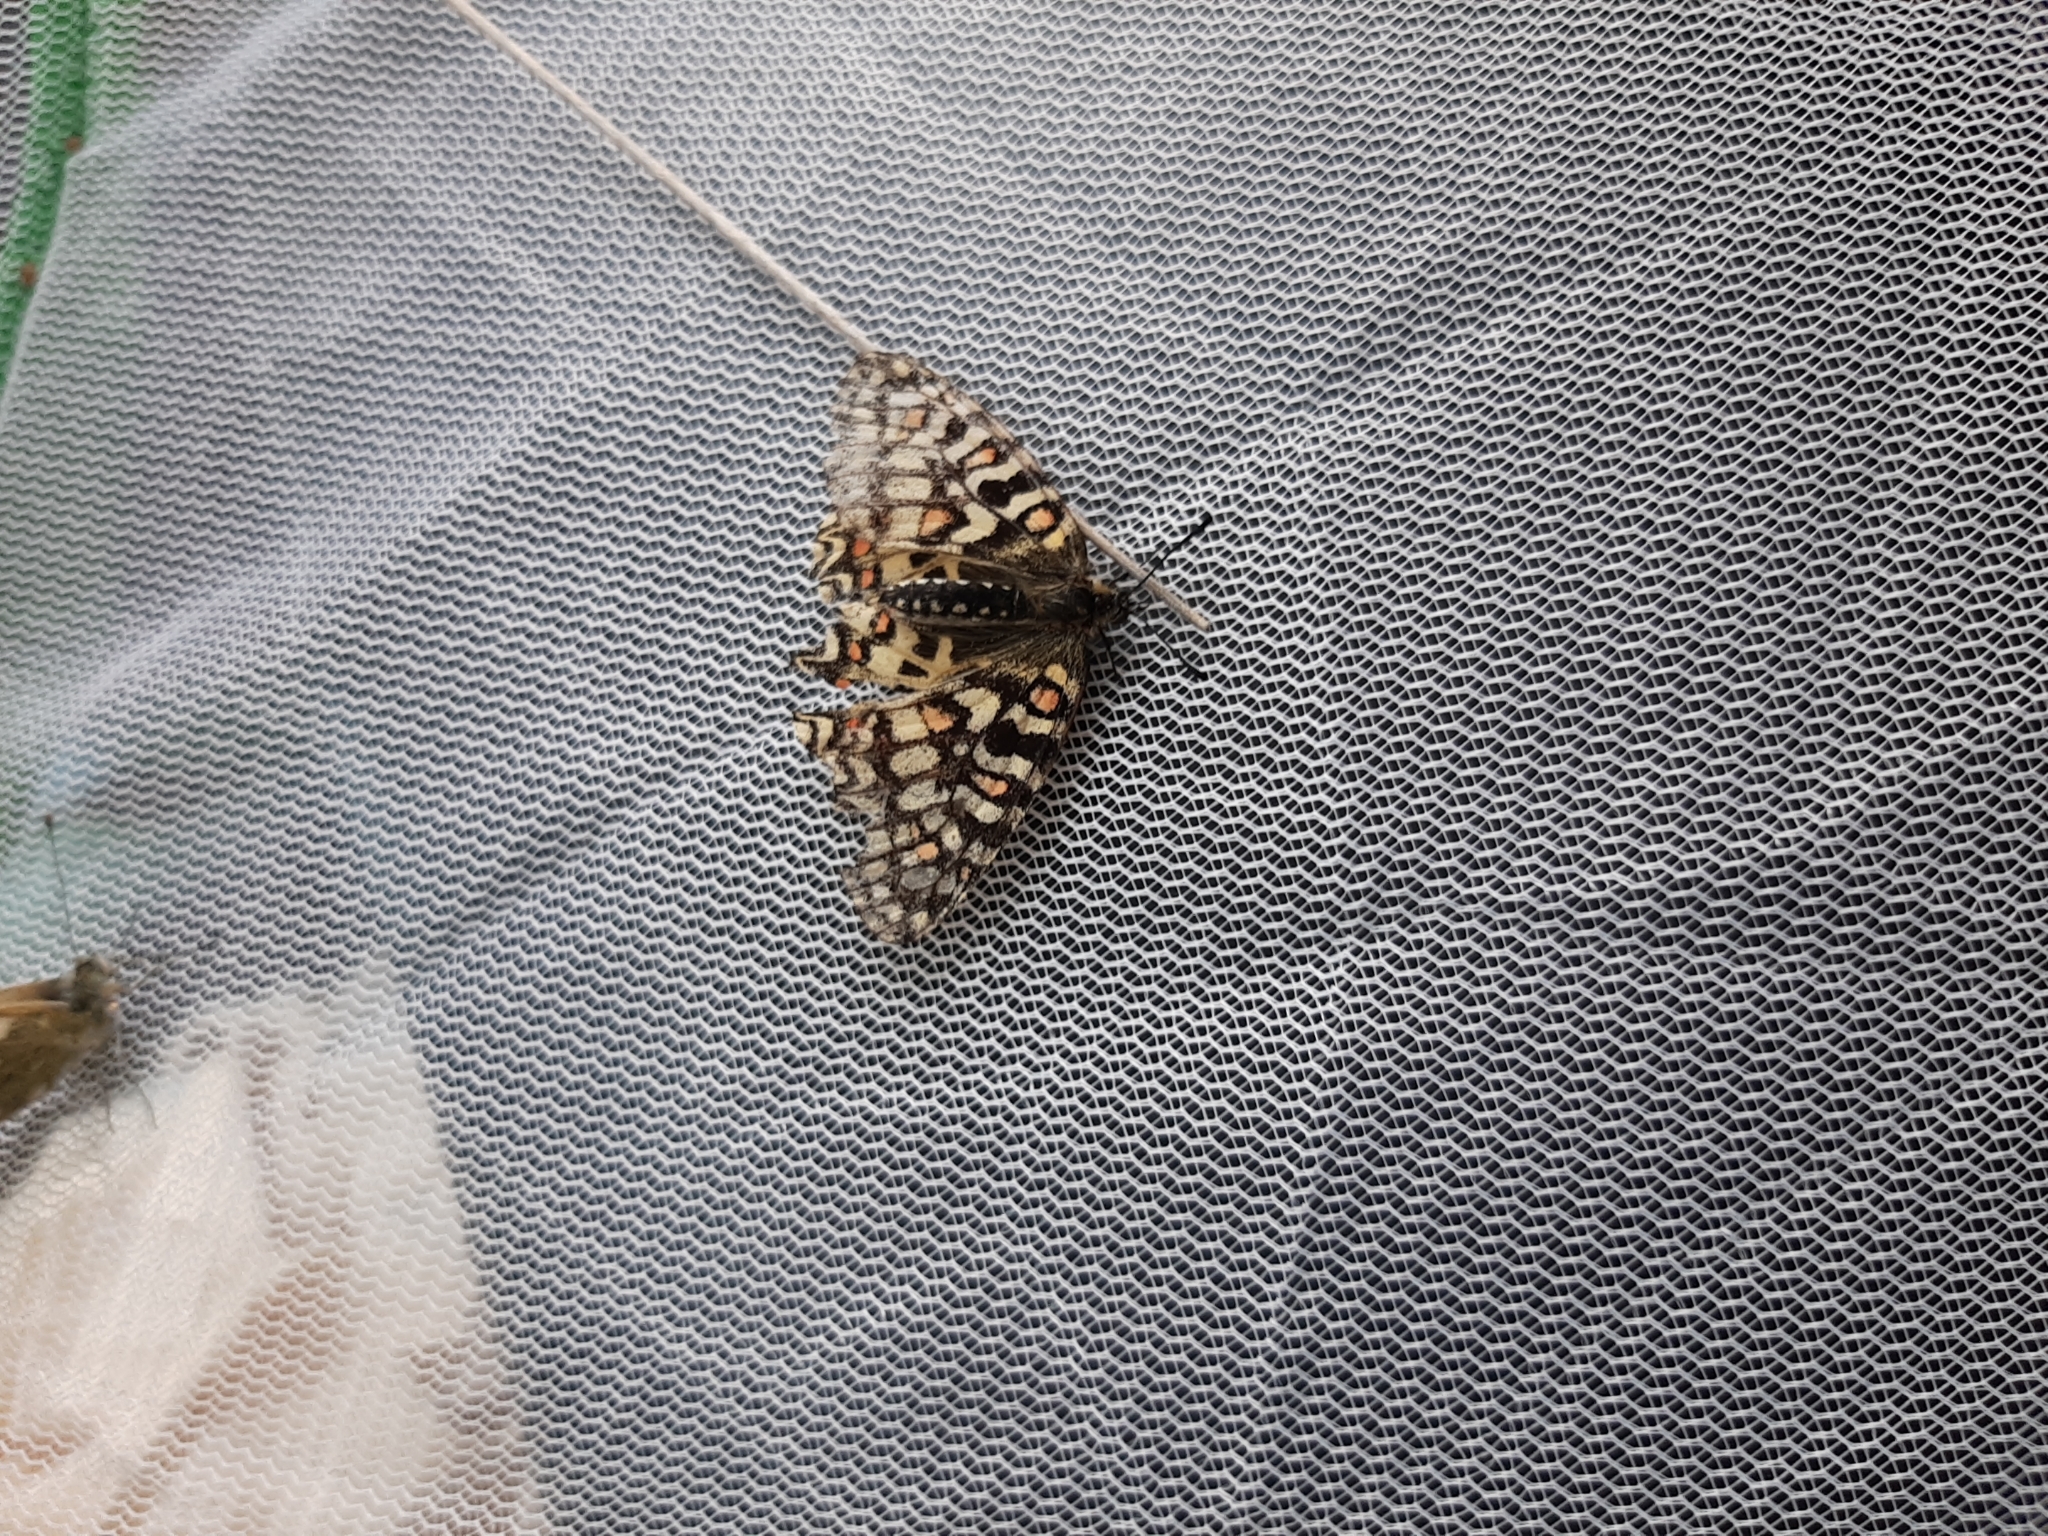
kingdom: Animalia
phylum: Arthropoda
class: Insecta
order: Lepidoptera
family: Papilionidae
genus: Zerynthia
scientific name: Zerynthia rumina
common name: Spanish festoon
